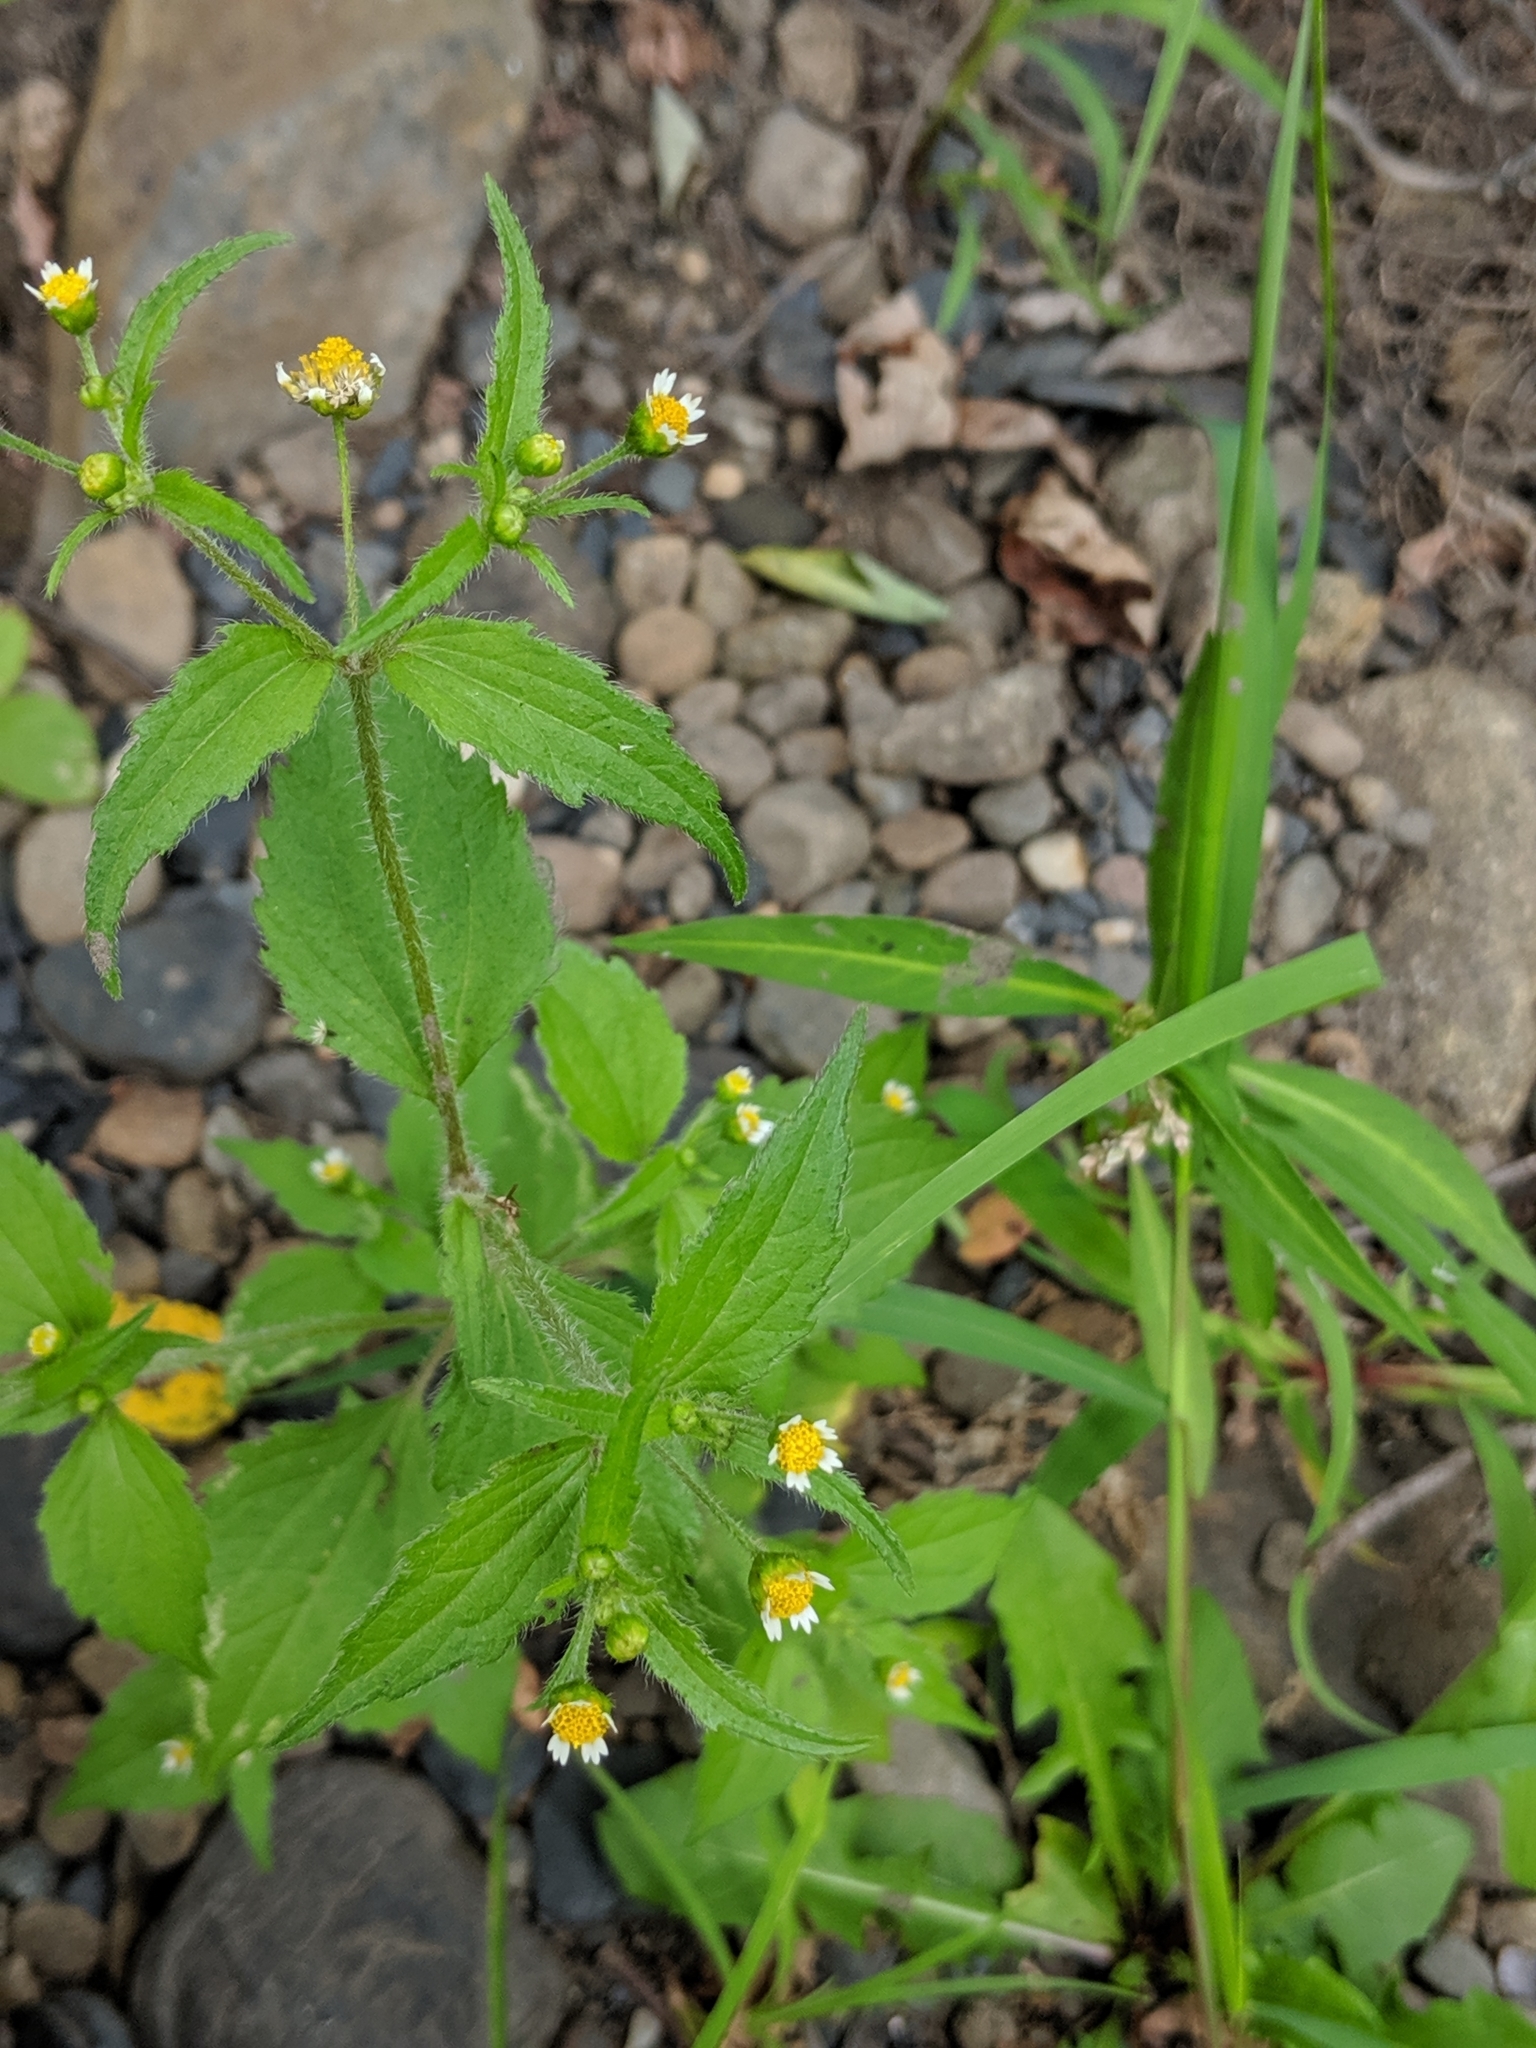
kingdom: Plantae
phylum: Tracheophyta
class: Magnoliopsida
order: Asterales
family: Asteraceae
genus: Galinsoga
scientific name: Galinsoga quadriradiata
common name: Shaggy soldier
